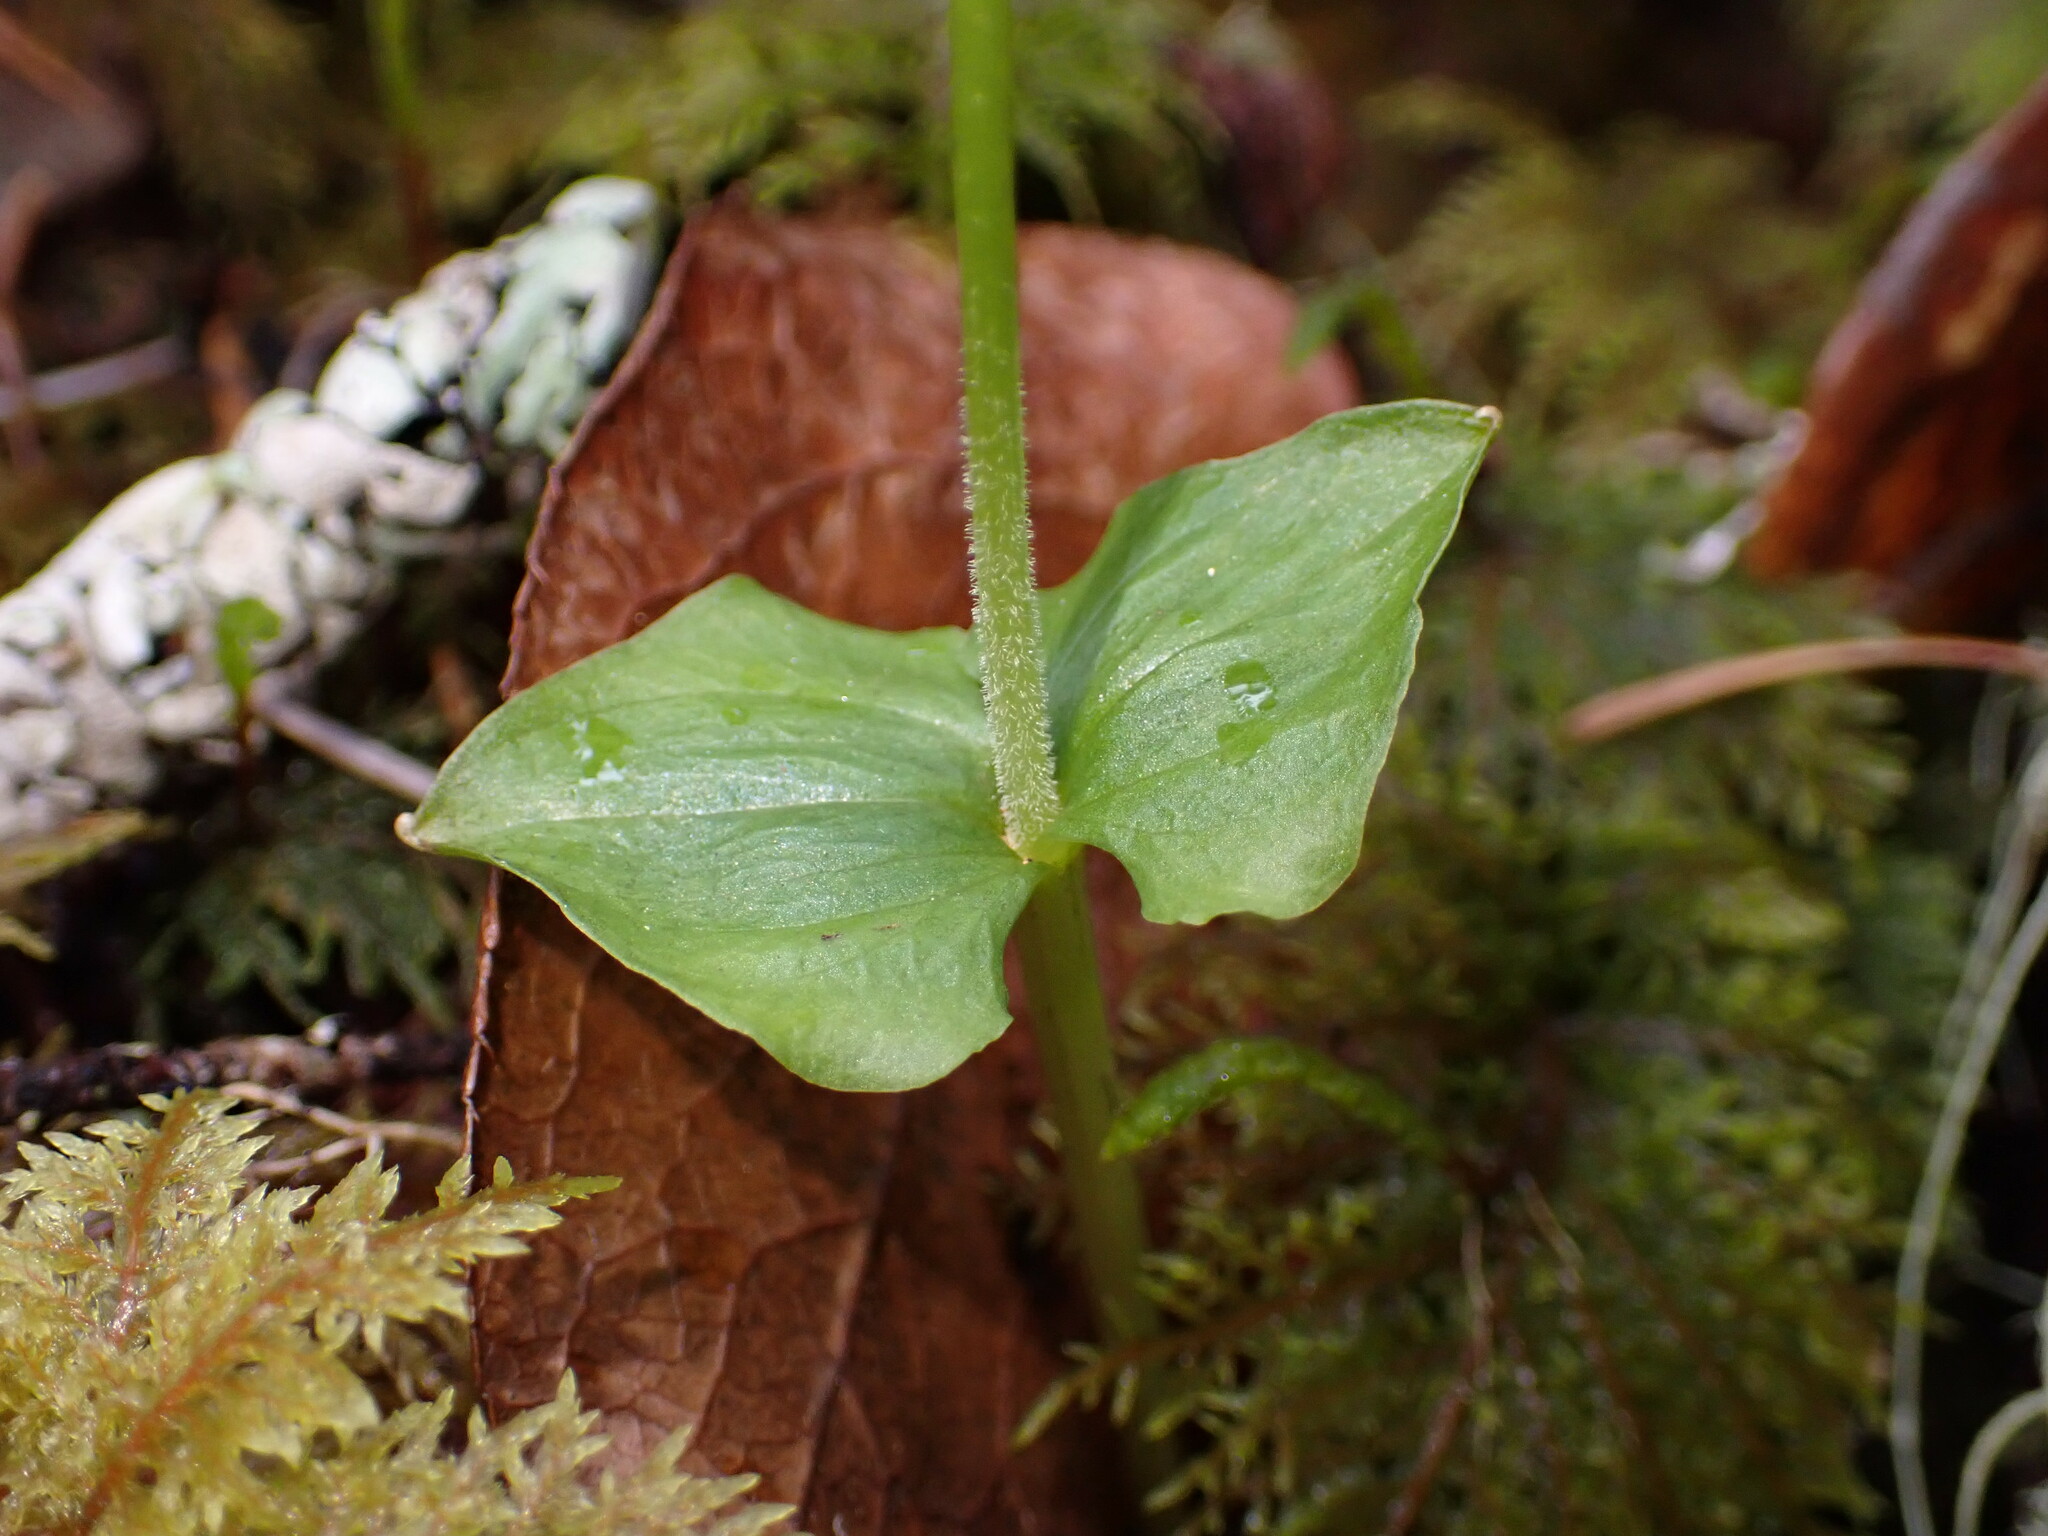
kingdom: Plantae
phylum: Tracheophyta
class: Liliopsida
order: Asparagales
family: Orchidaceae
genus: Neottia
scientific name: Neottia cordata
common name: Lesser twayblade
